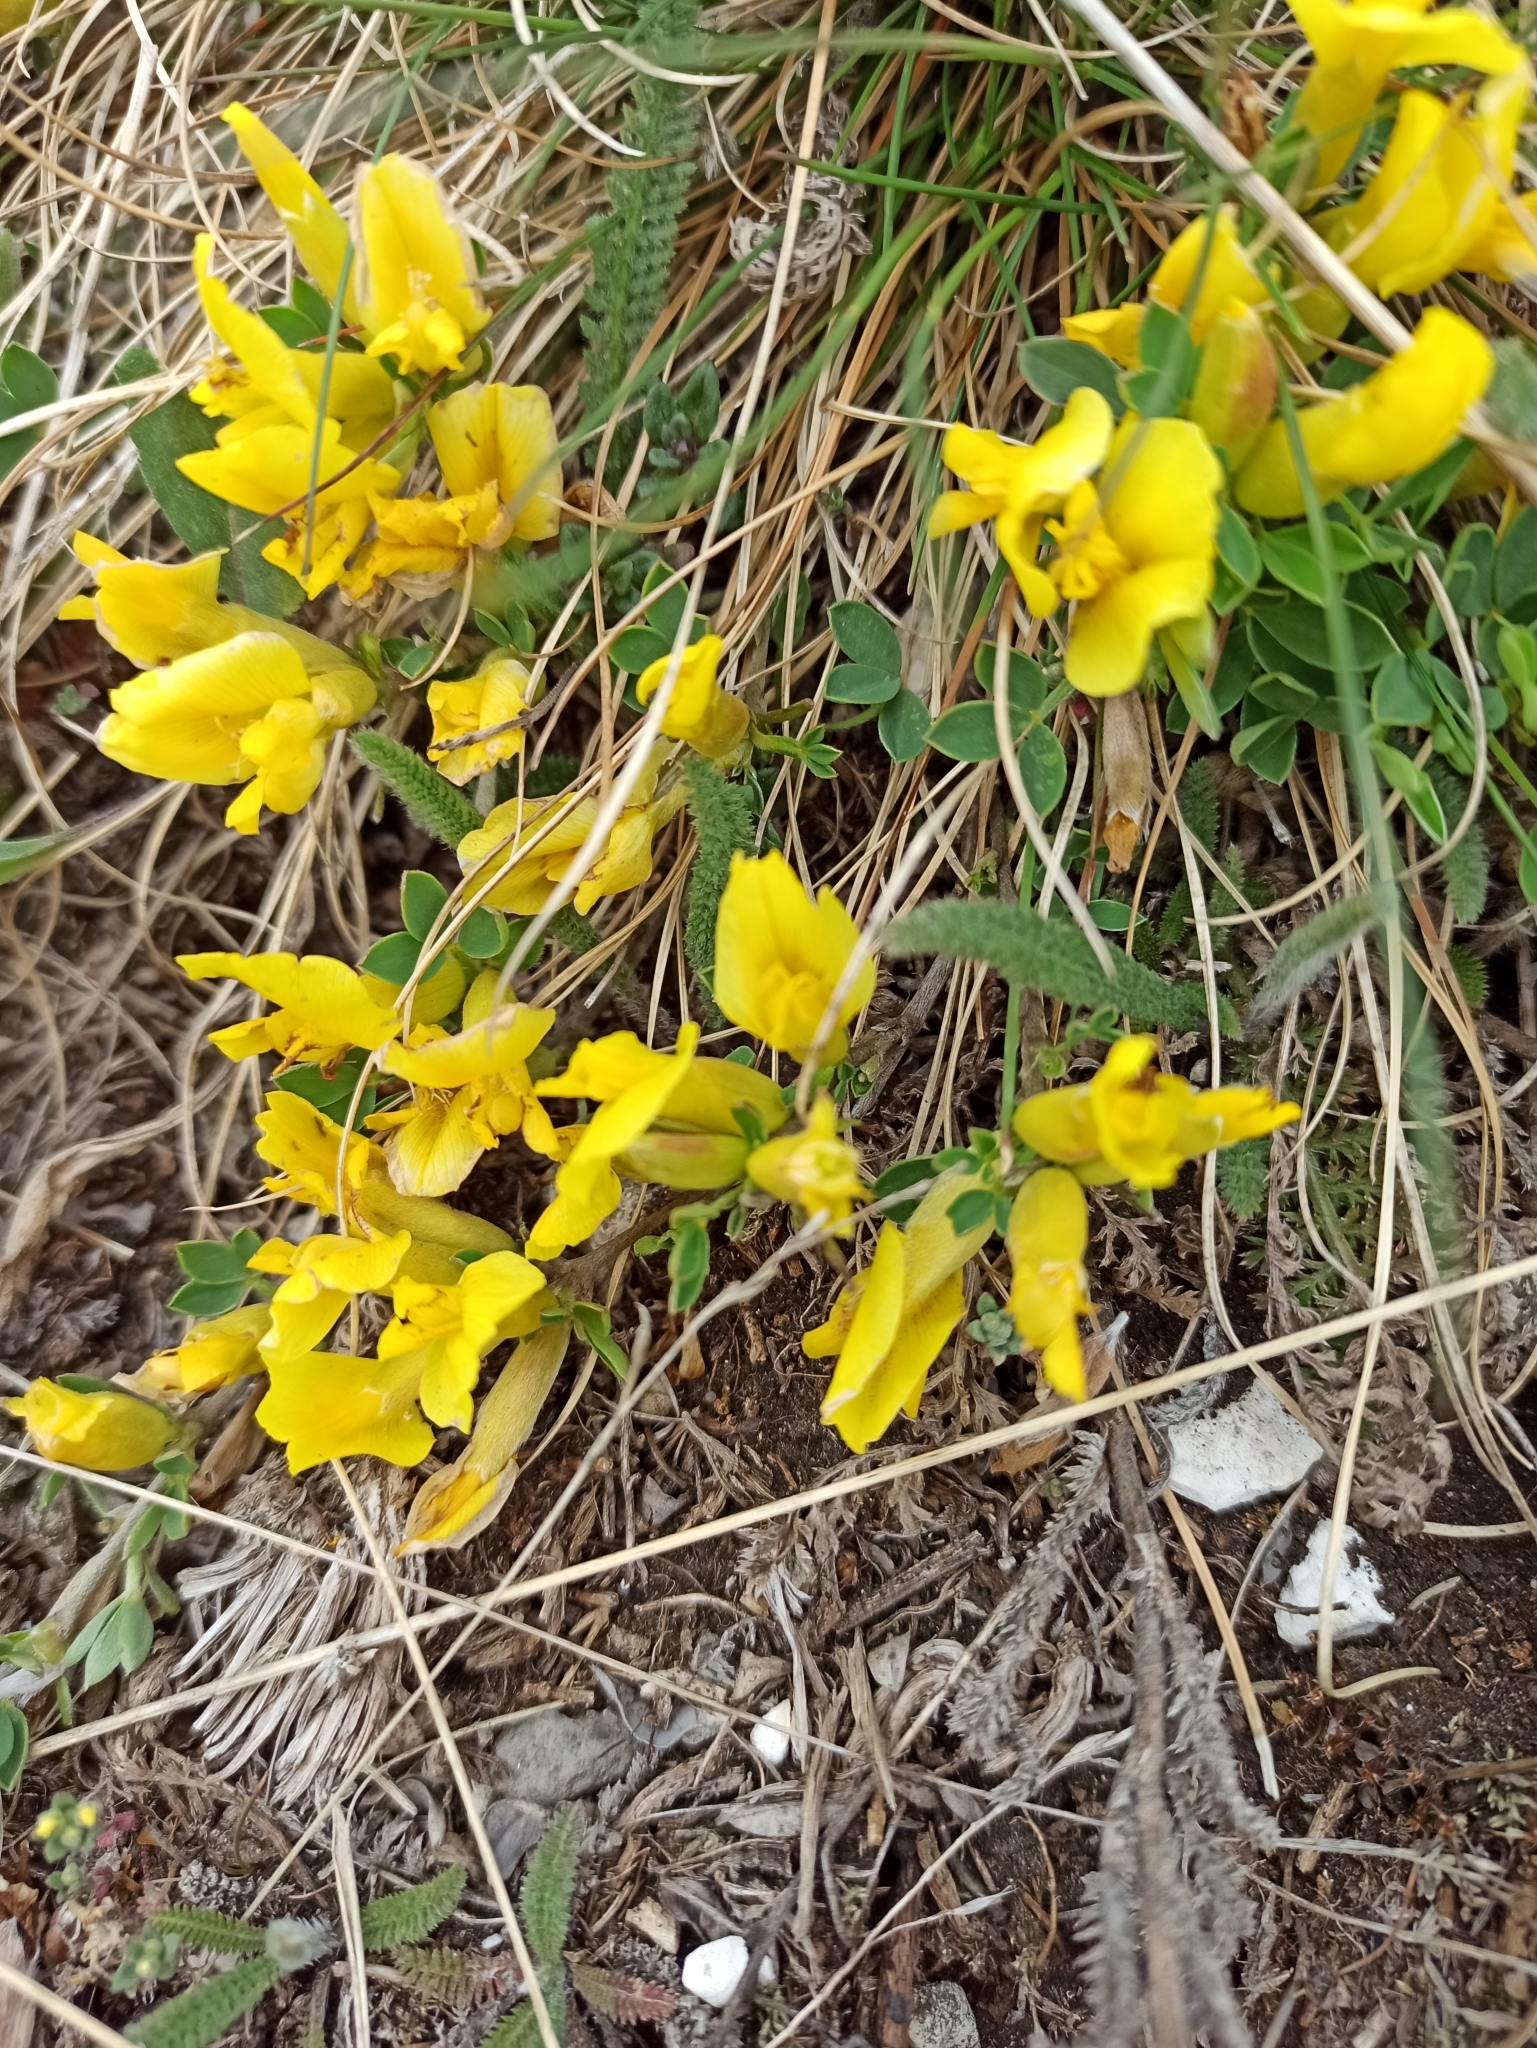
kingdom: Plantae
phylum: Tracheophyta
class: Magnoliopsida
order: Fabales
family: Fabaceae
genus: Chamaecytisus
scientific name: Chamaecytisus ratisbonensis
